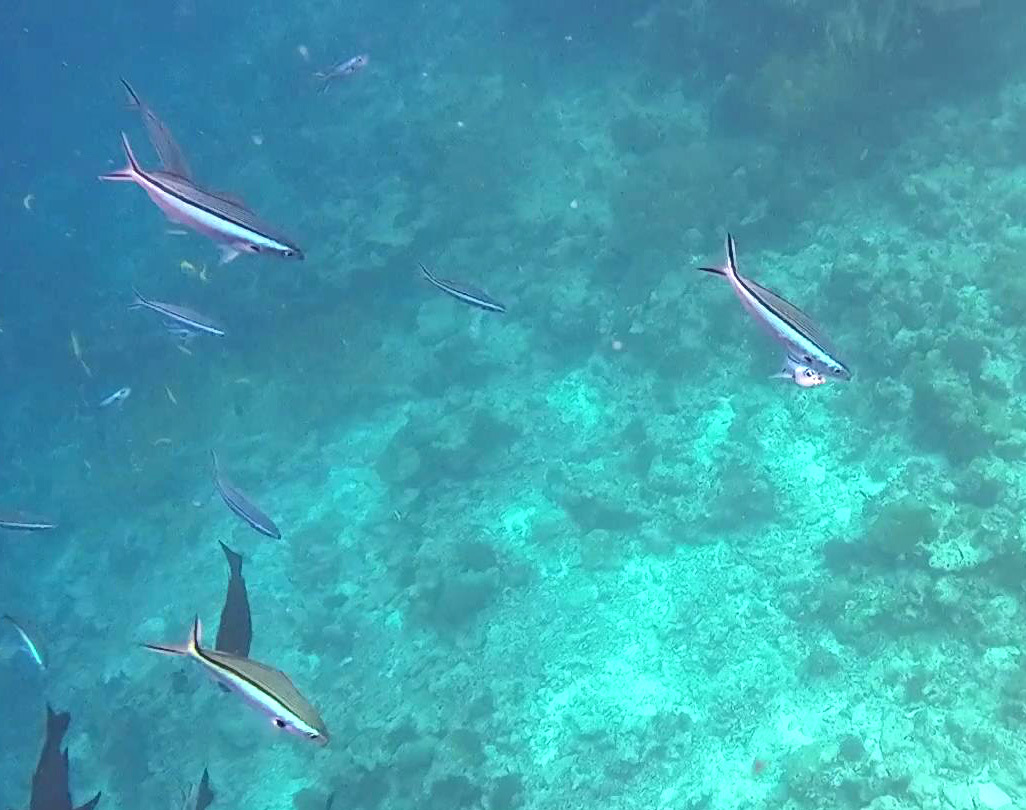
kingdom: Animalia
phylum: Chordata
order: Perciformes
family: Caesionidae
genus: Pterocaesio
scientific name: Pterocaesio tile
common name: Dark-banded fusilier
